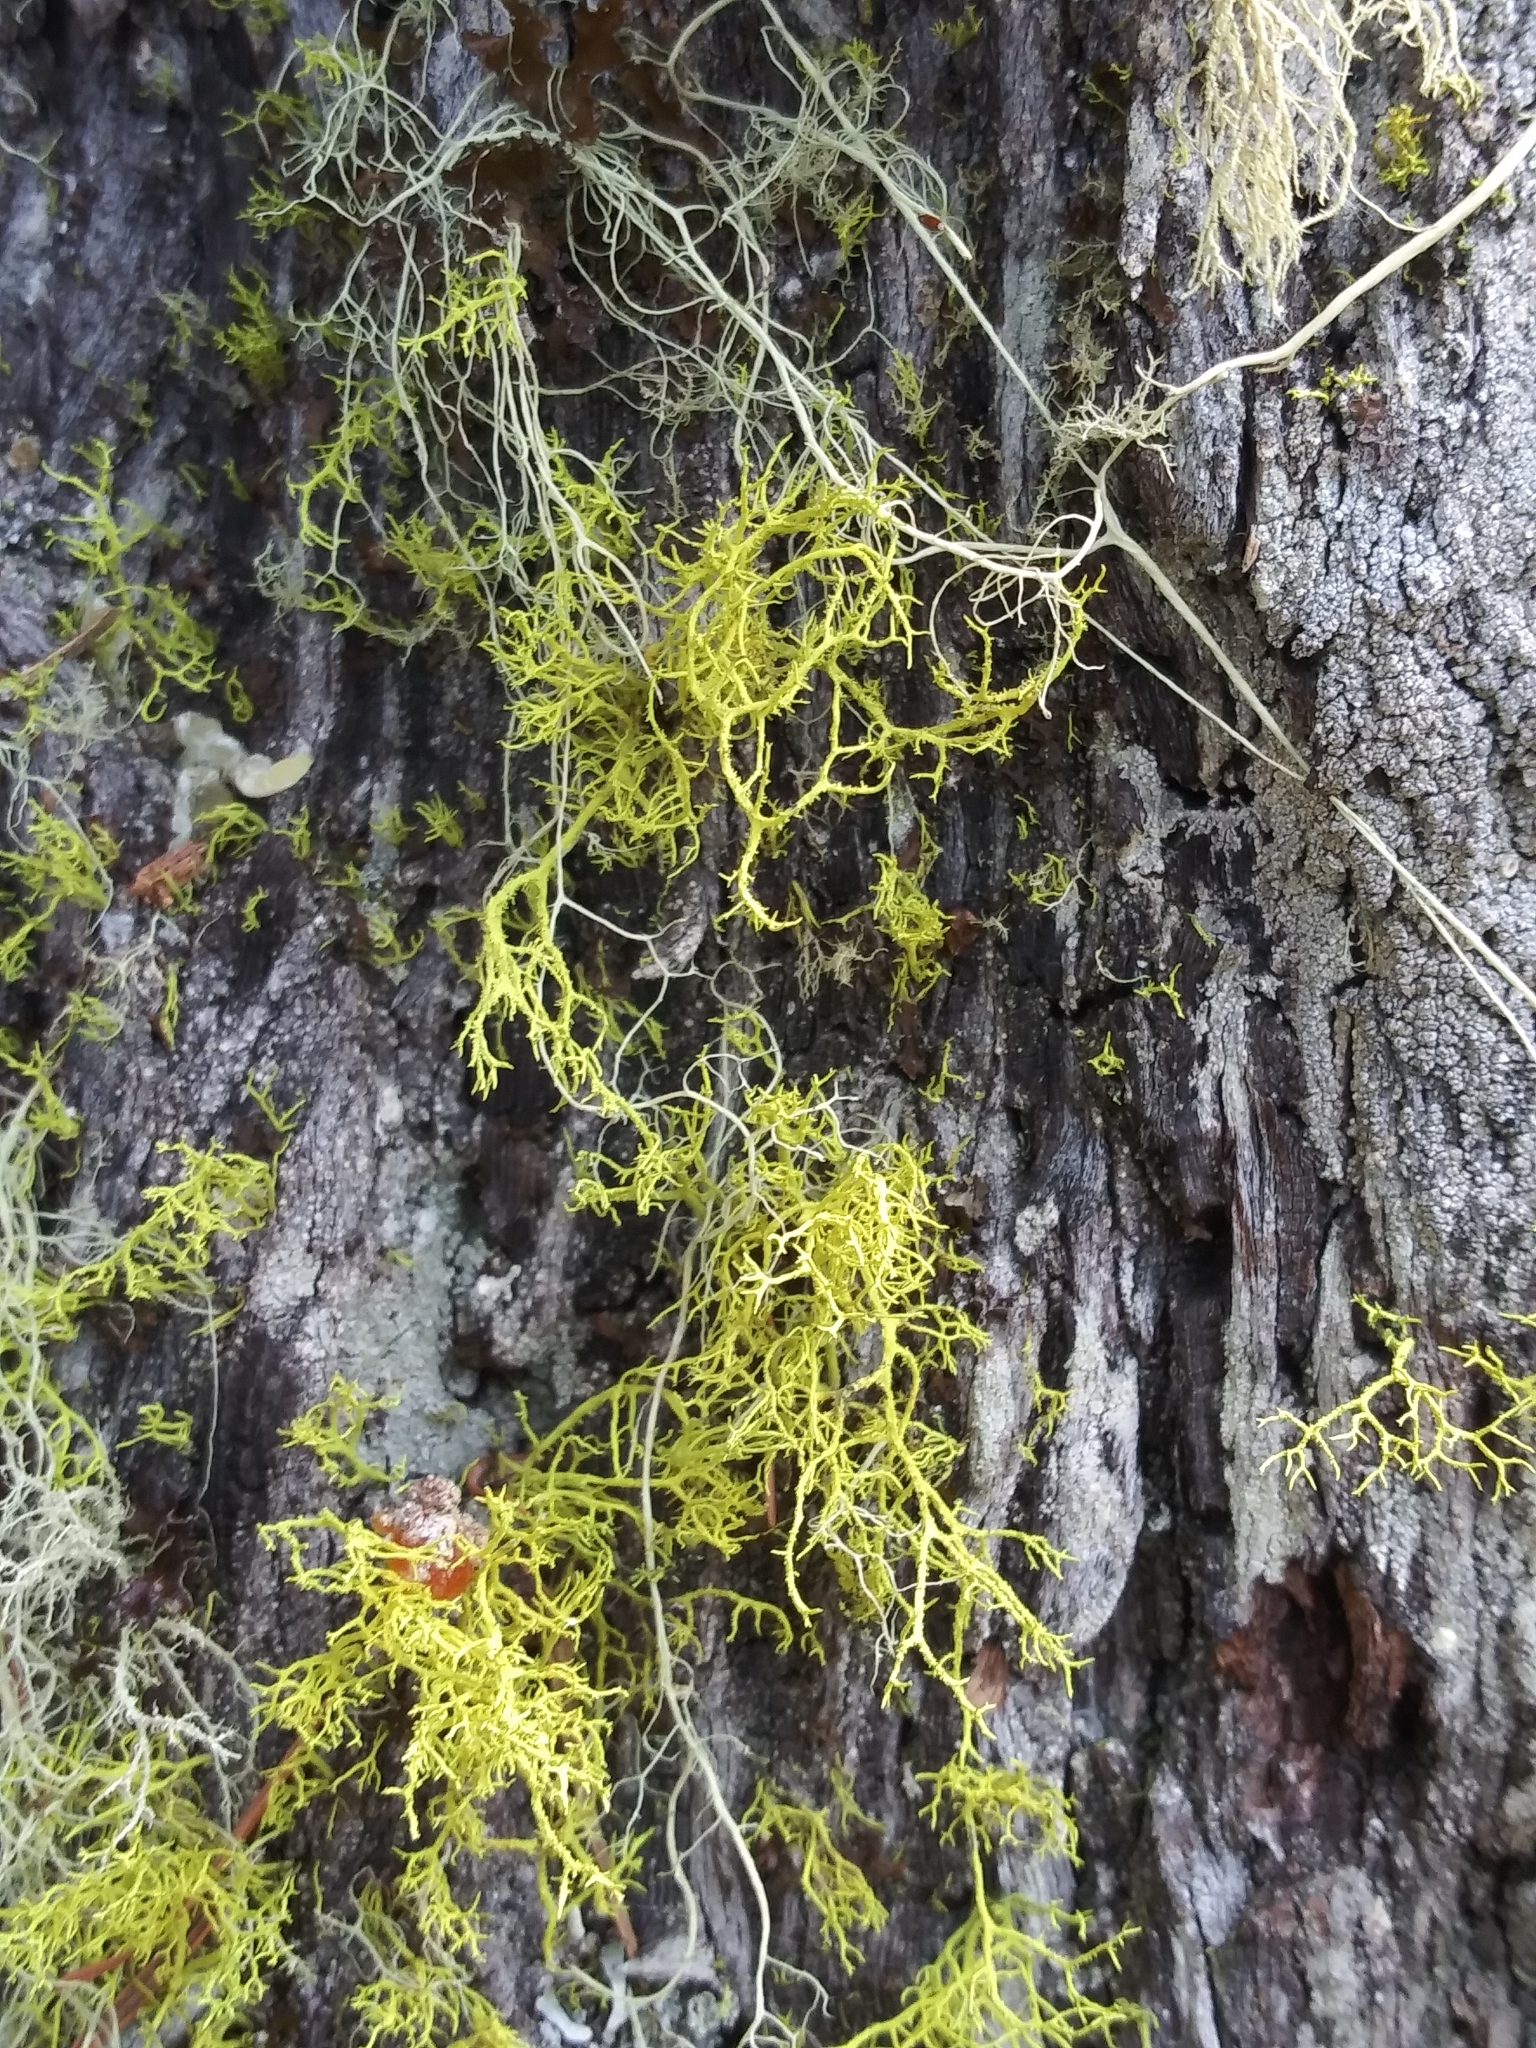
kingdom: Fungi
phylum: Ascomycota
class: Lecanoromycetes
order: Lecanorales
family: Parmeliaceae
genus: Letharia
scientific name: Letharia vulpina
